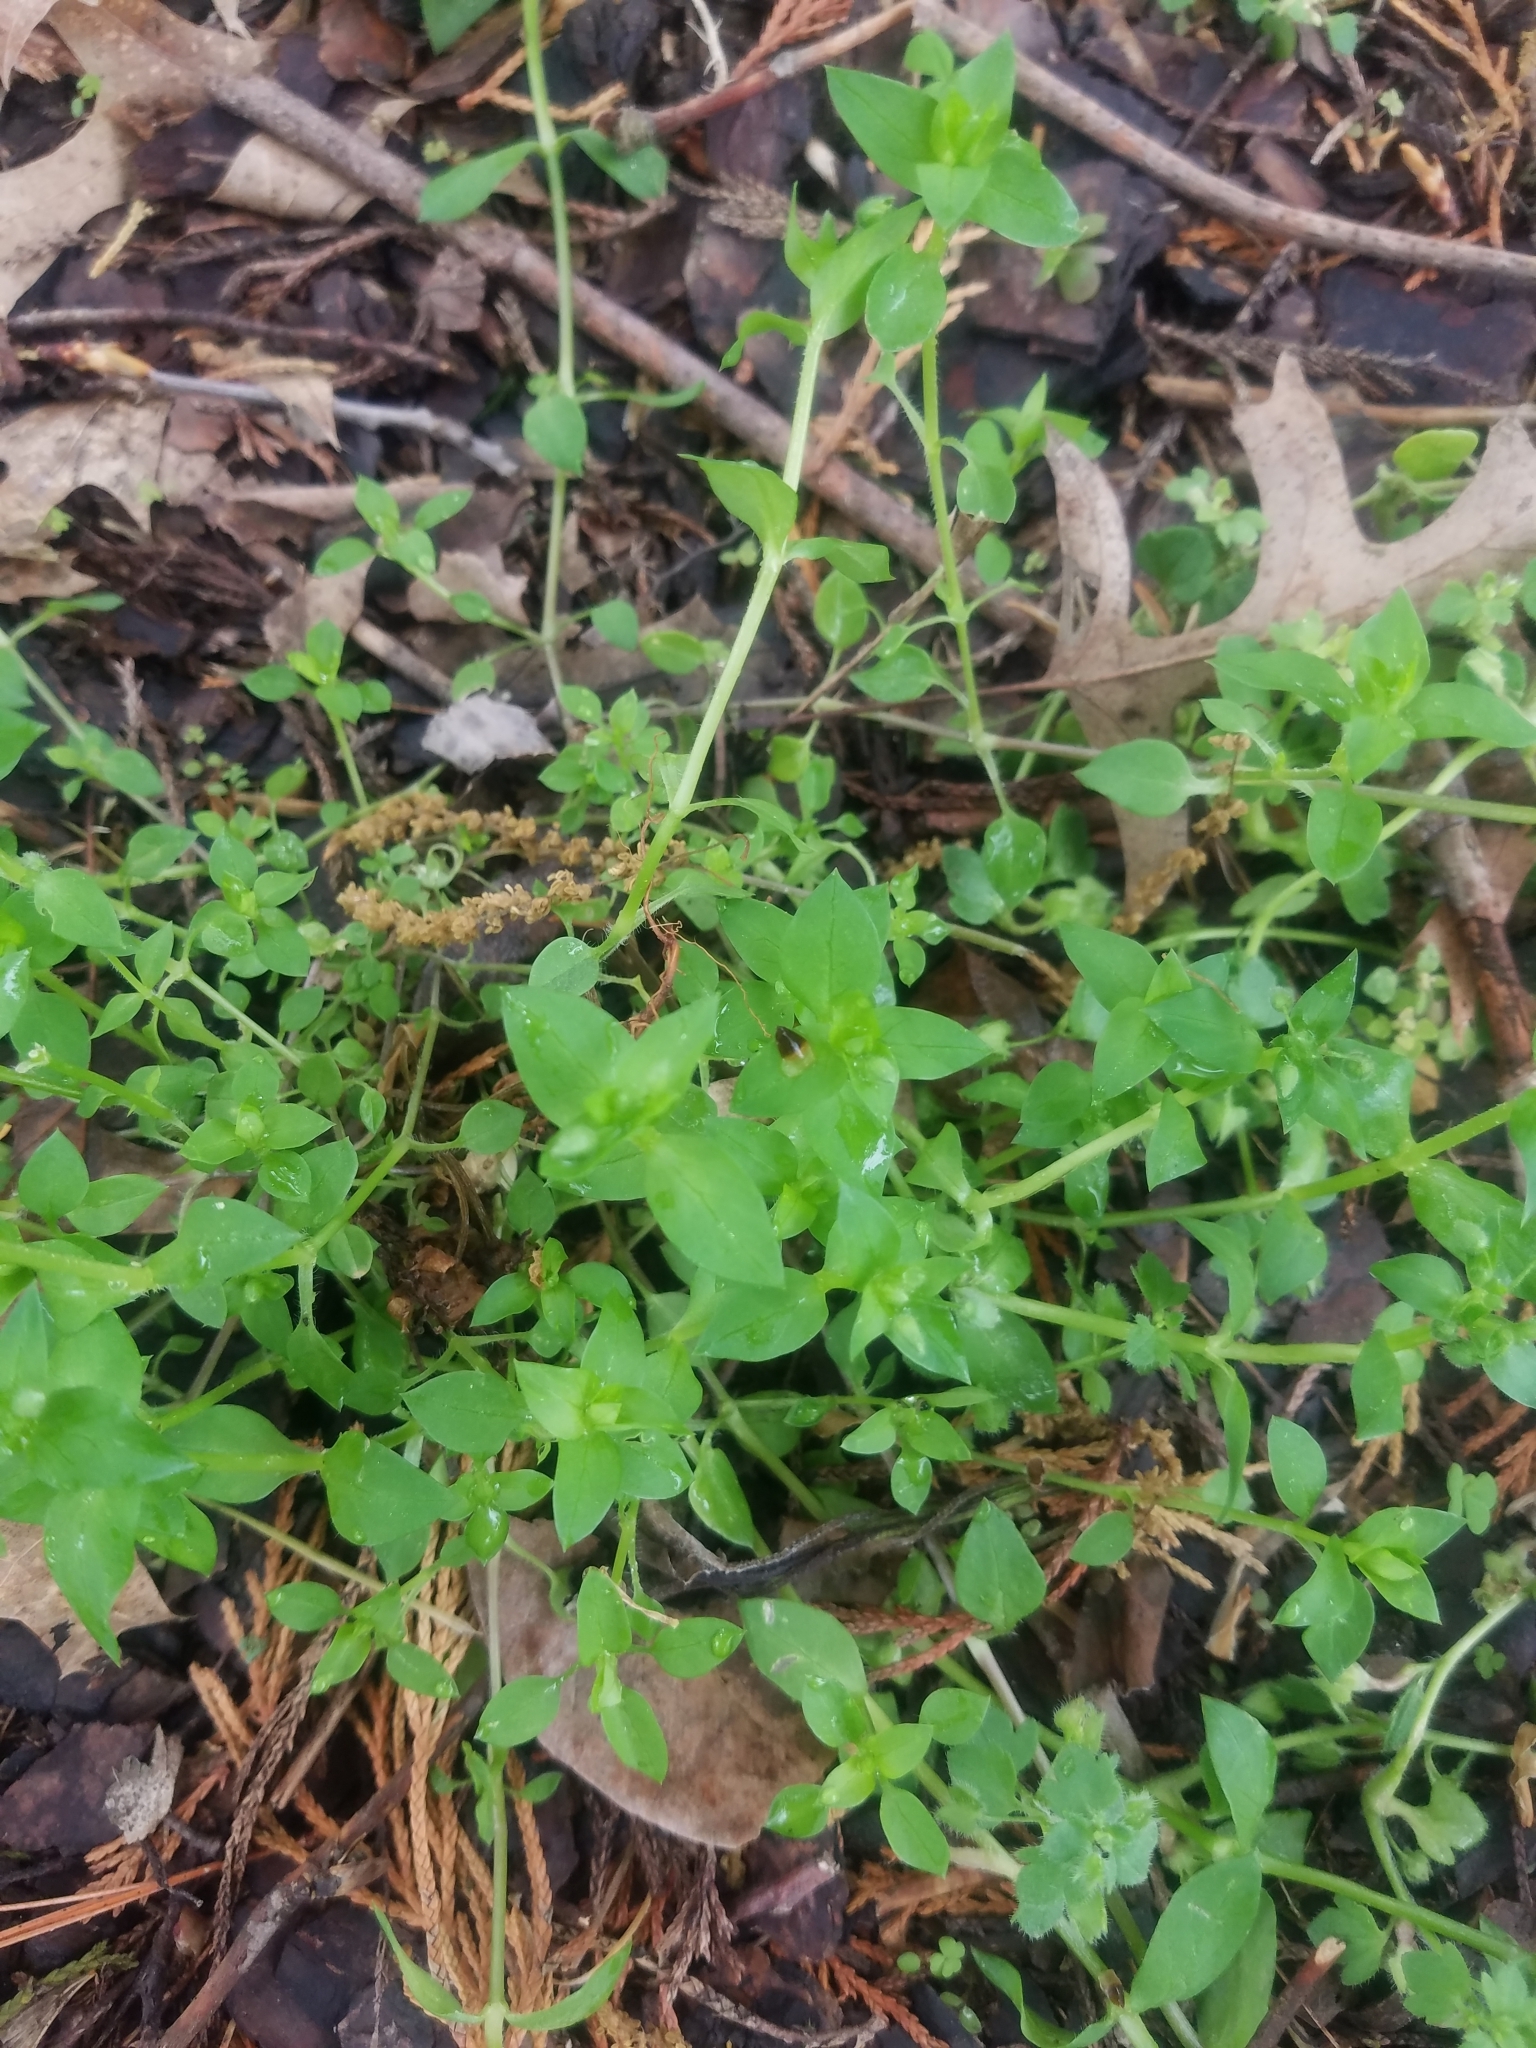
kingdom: Plantae
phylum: Tracheophyta
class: Magnoliopsida
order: Caryophyllales
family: Caryophyllaceae
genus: Stellaria
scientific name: Stellaria media
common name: Common chickweed
